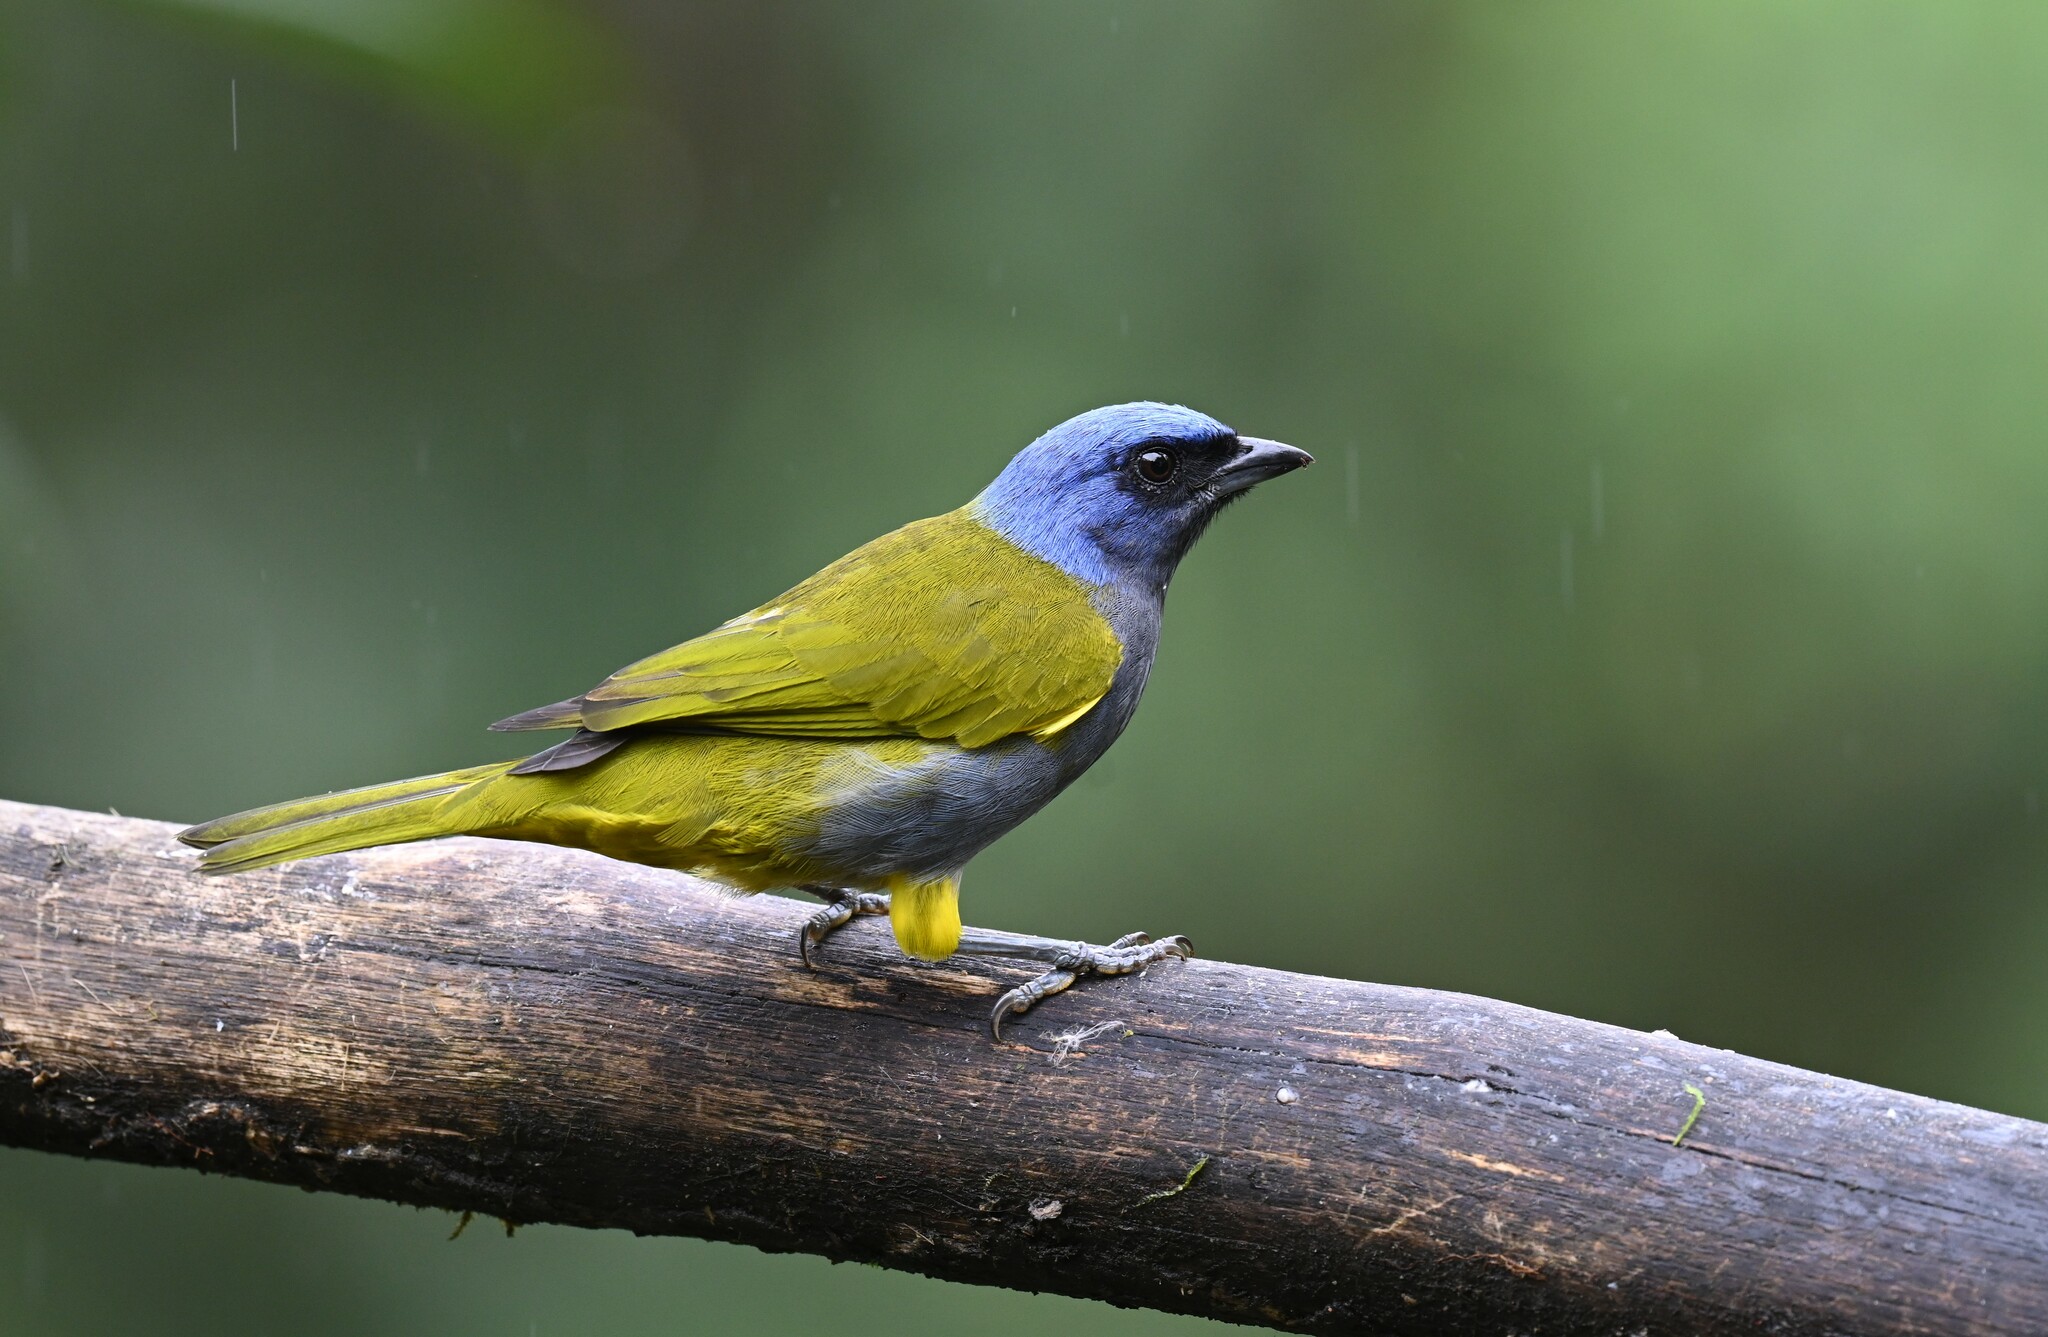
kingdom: Animalia
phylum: Chordata
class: Aves
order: Passeriformes
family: Thraupidae
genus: Sporathraupis
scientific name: Sporathraupis cyanocephala
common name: Blue-capped tanager
